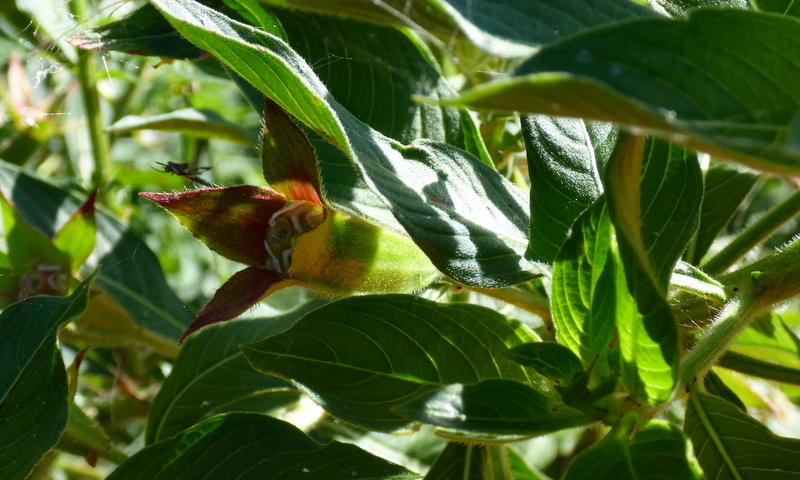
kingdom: Plantae
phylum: Tracheophyta
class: Magnoliopsida
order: Myrtales
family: Onagraceae
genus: Ludwigia
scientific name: Ludwigia peruviana
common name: Peruvian primrose-willow
